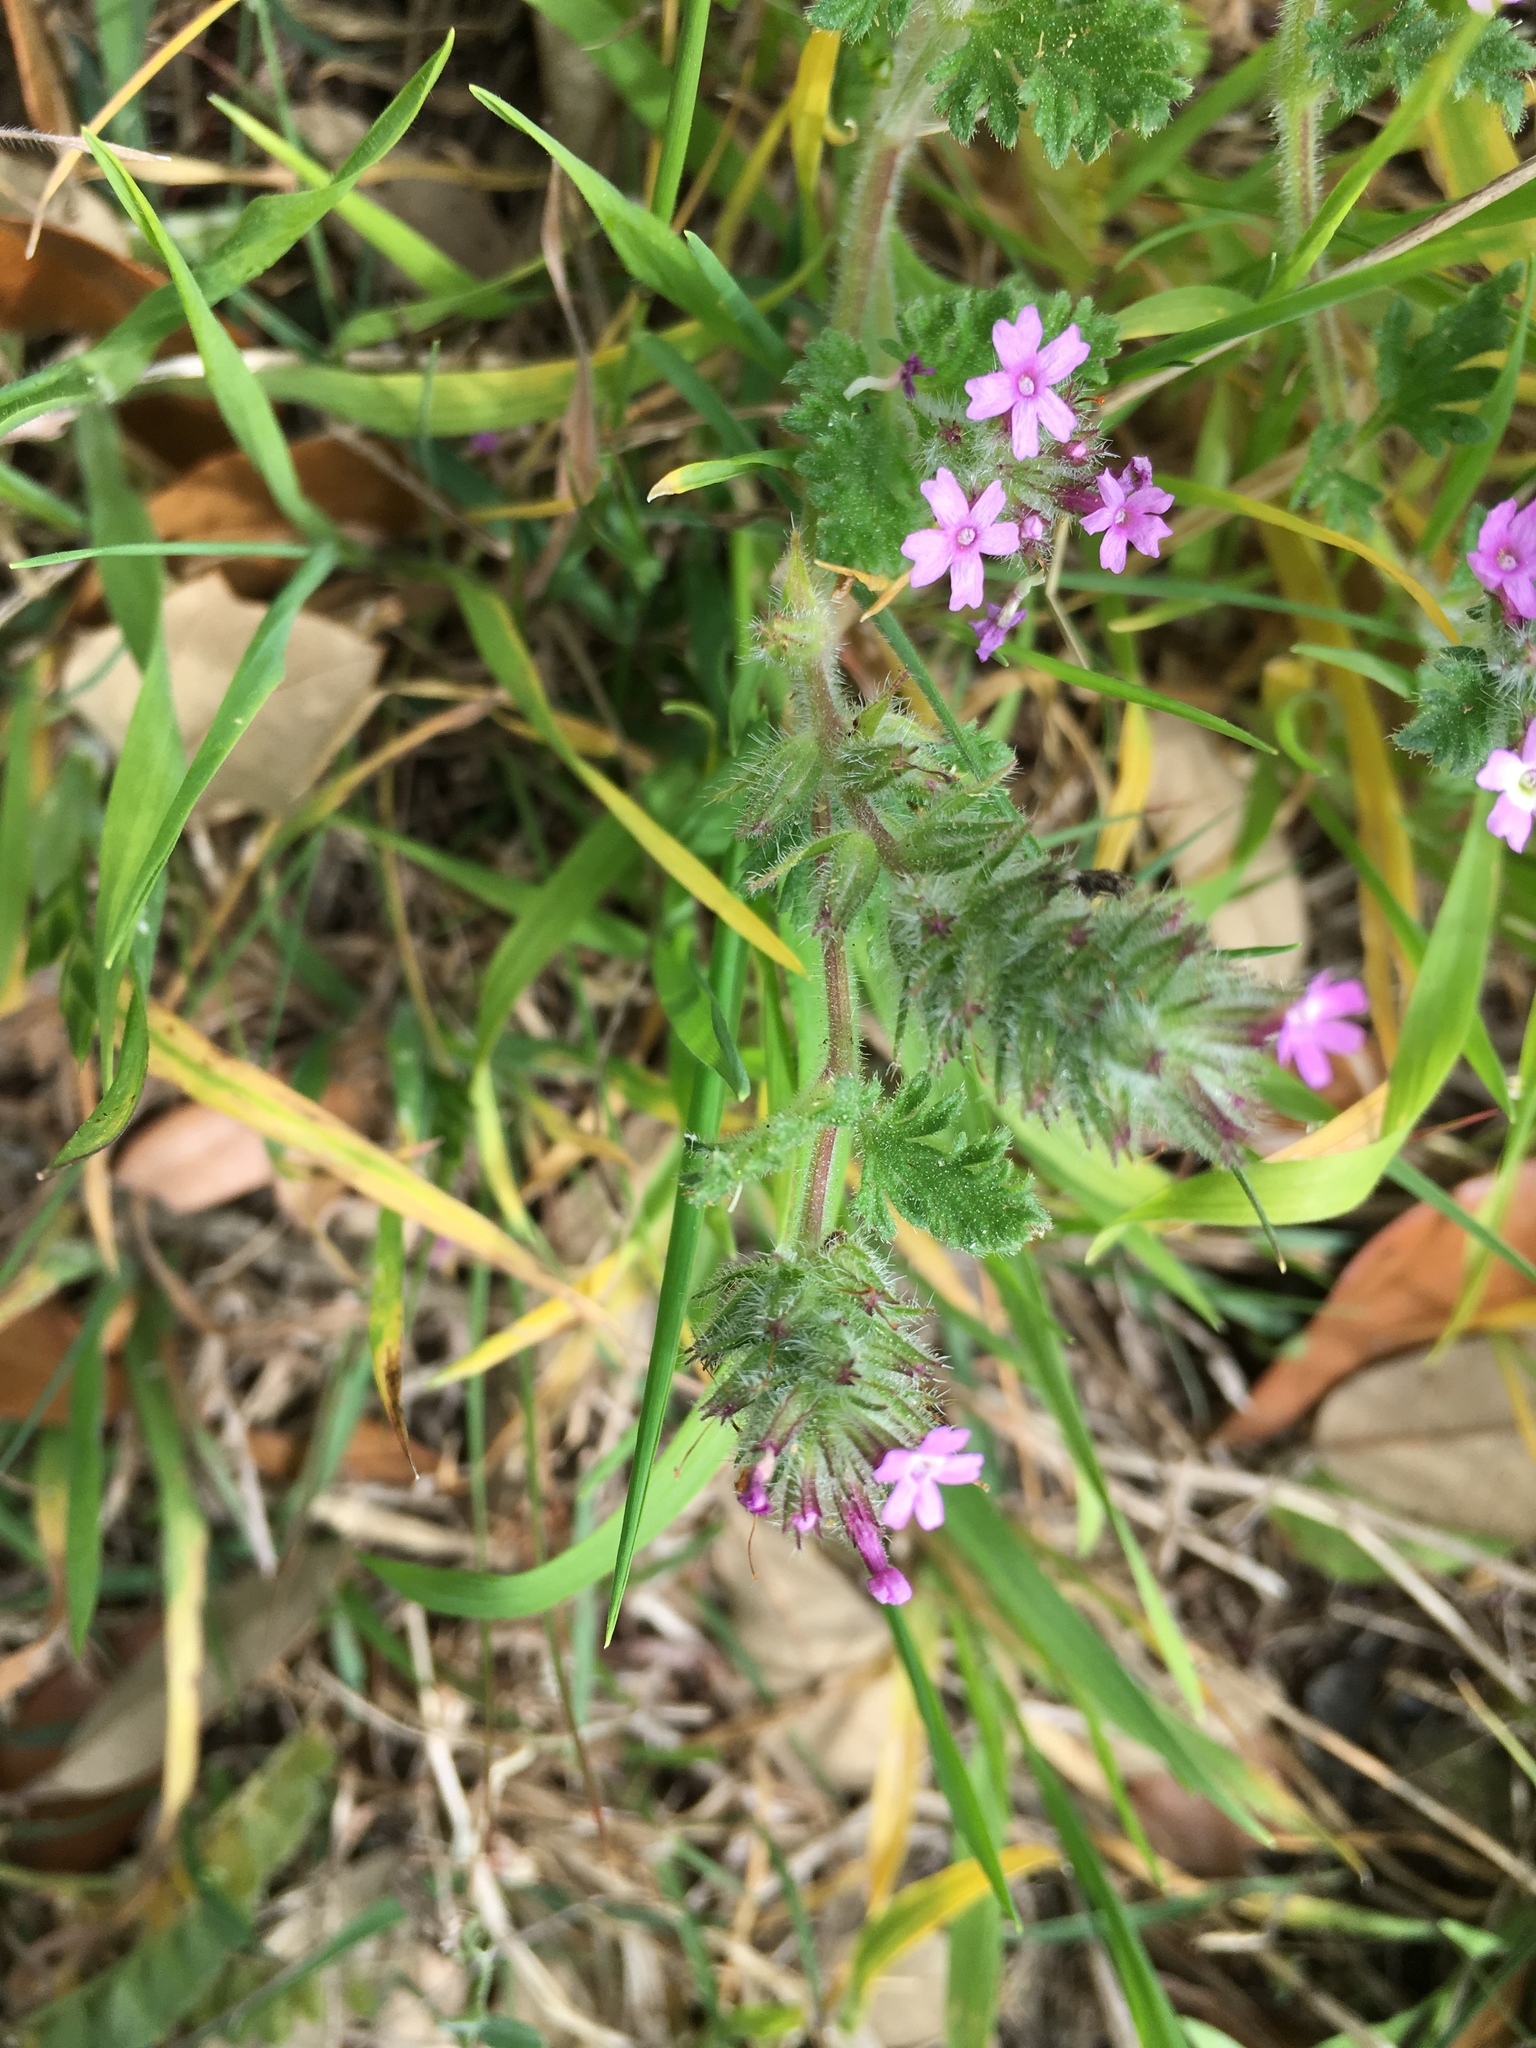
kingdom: Plantae
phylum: Tracheophyta
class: Magnoliopsida
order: Lamiales
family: Verbenaceae
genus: Verbena
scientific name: Verbena pumila
